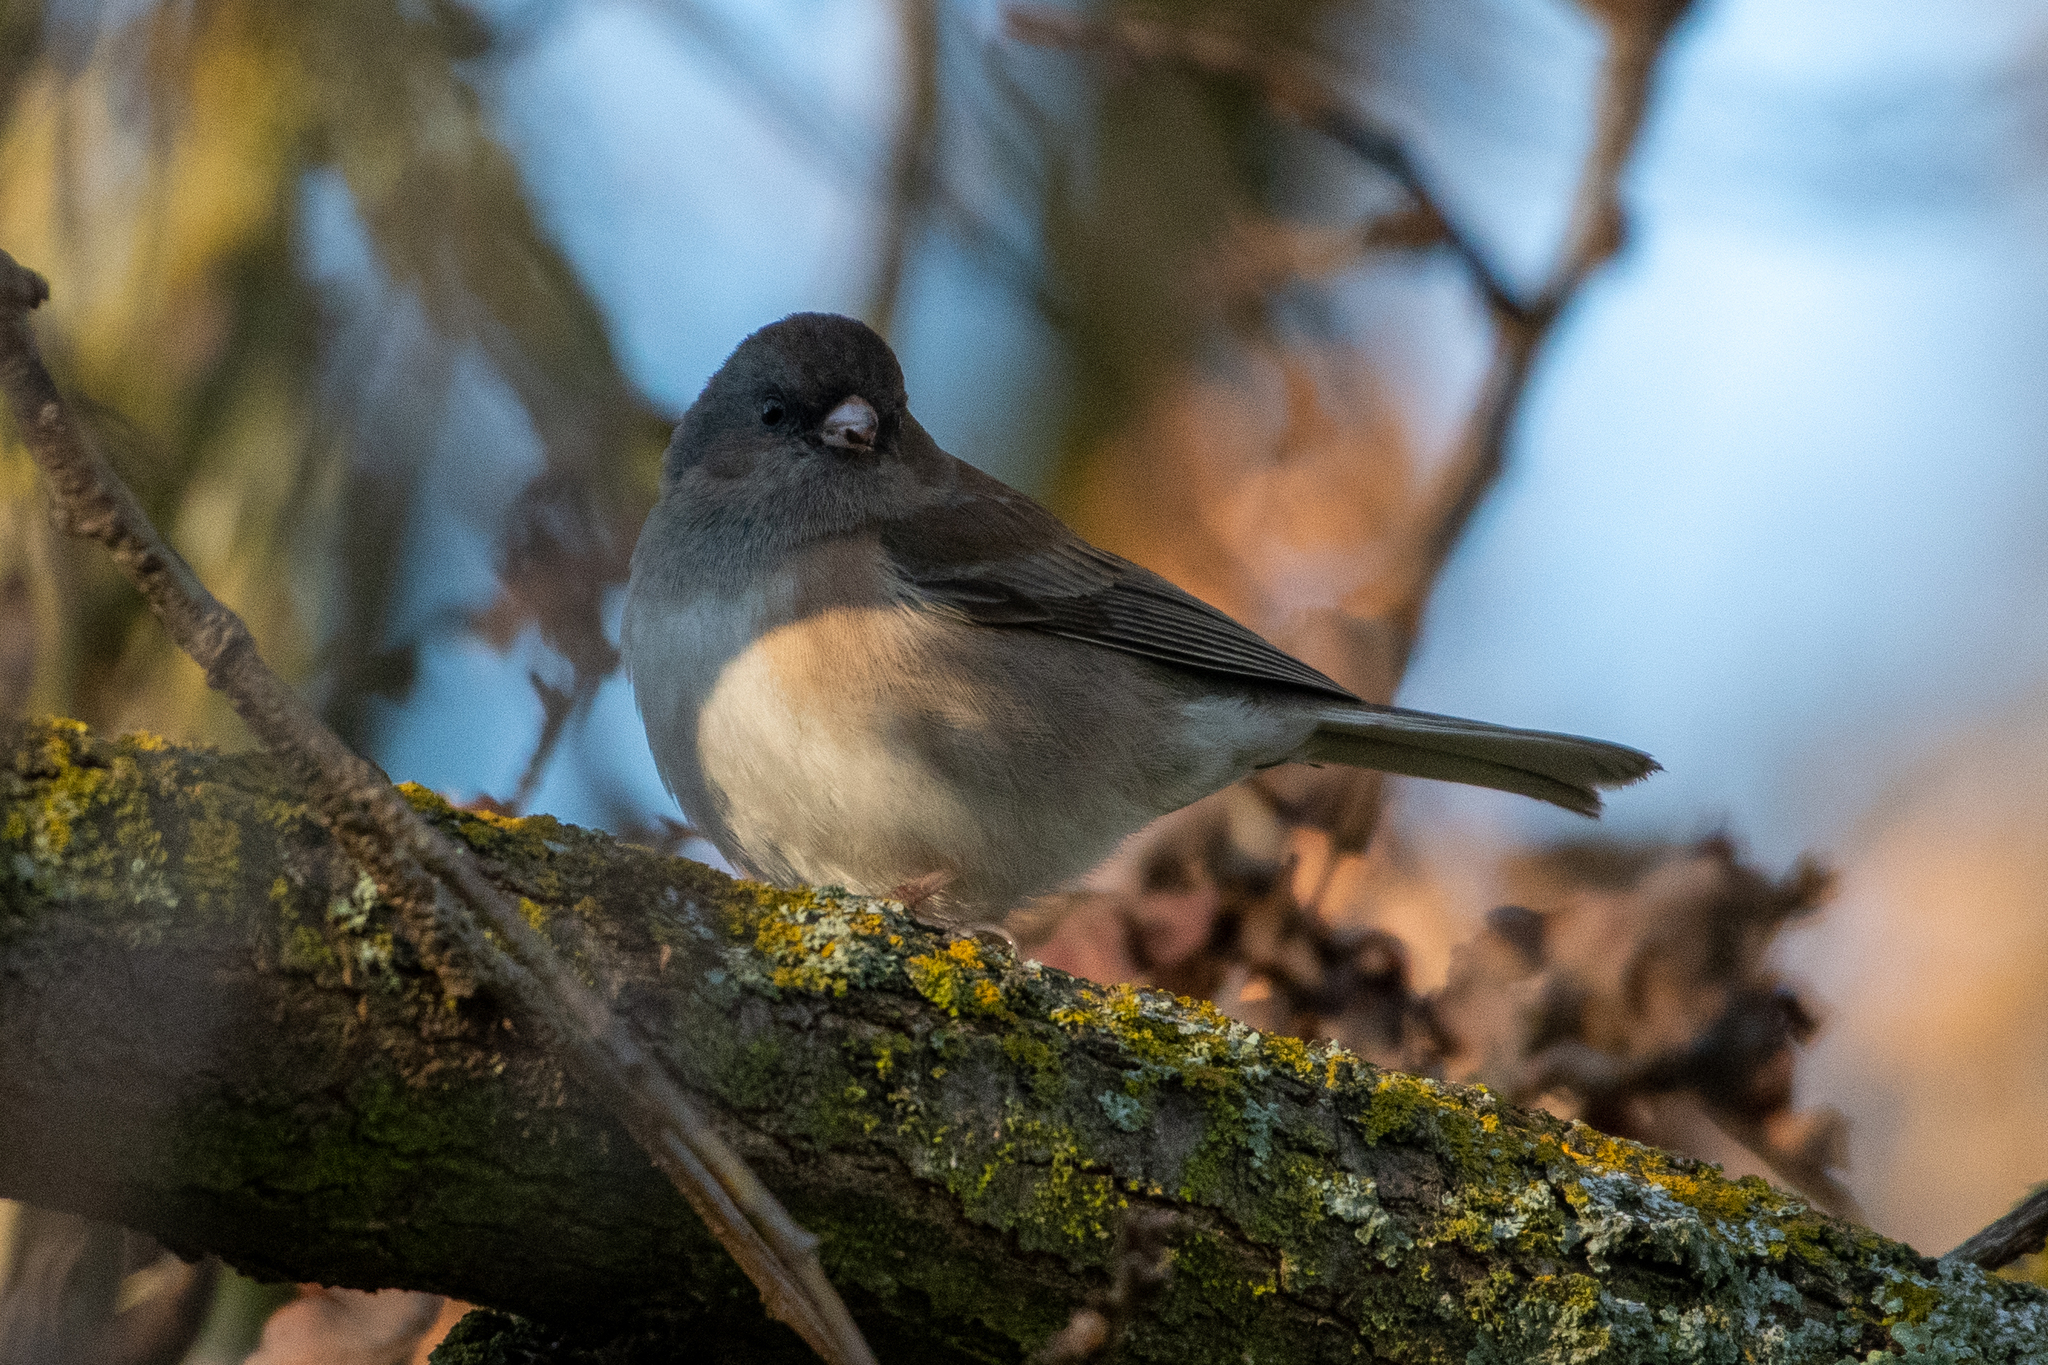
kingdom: Animalia
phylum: Chordata
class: Aves
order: Passeriformes
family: Passerellidae
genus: Junco
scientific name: Junco hyemalis
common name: Dark-eyed junco
